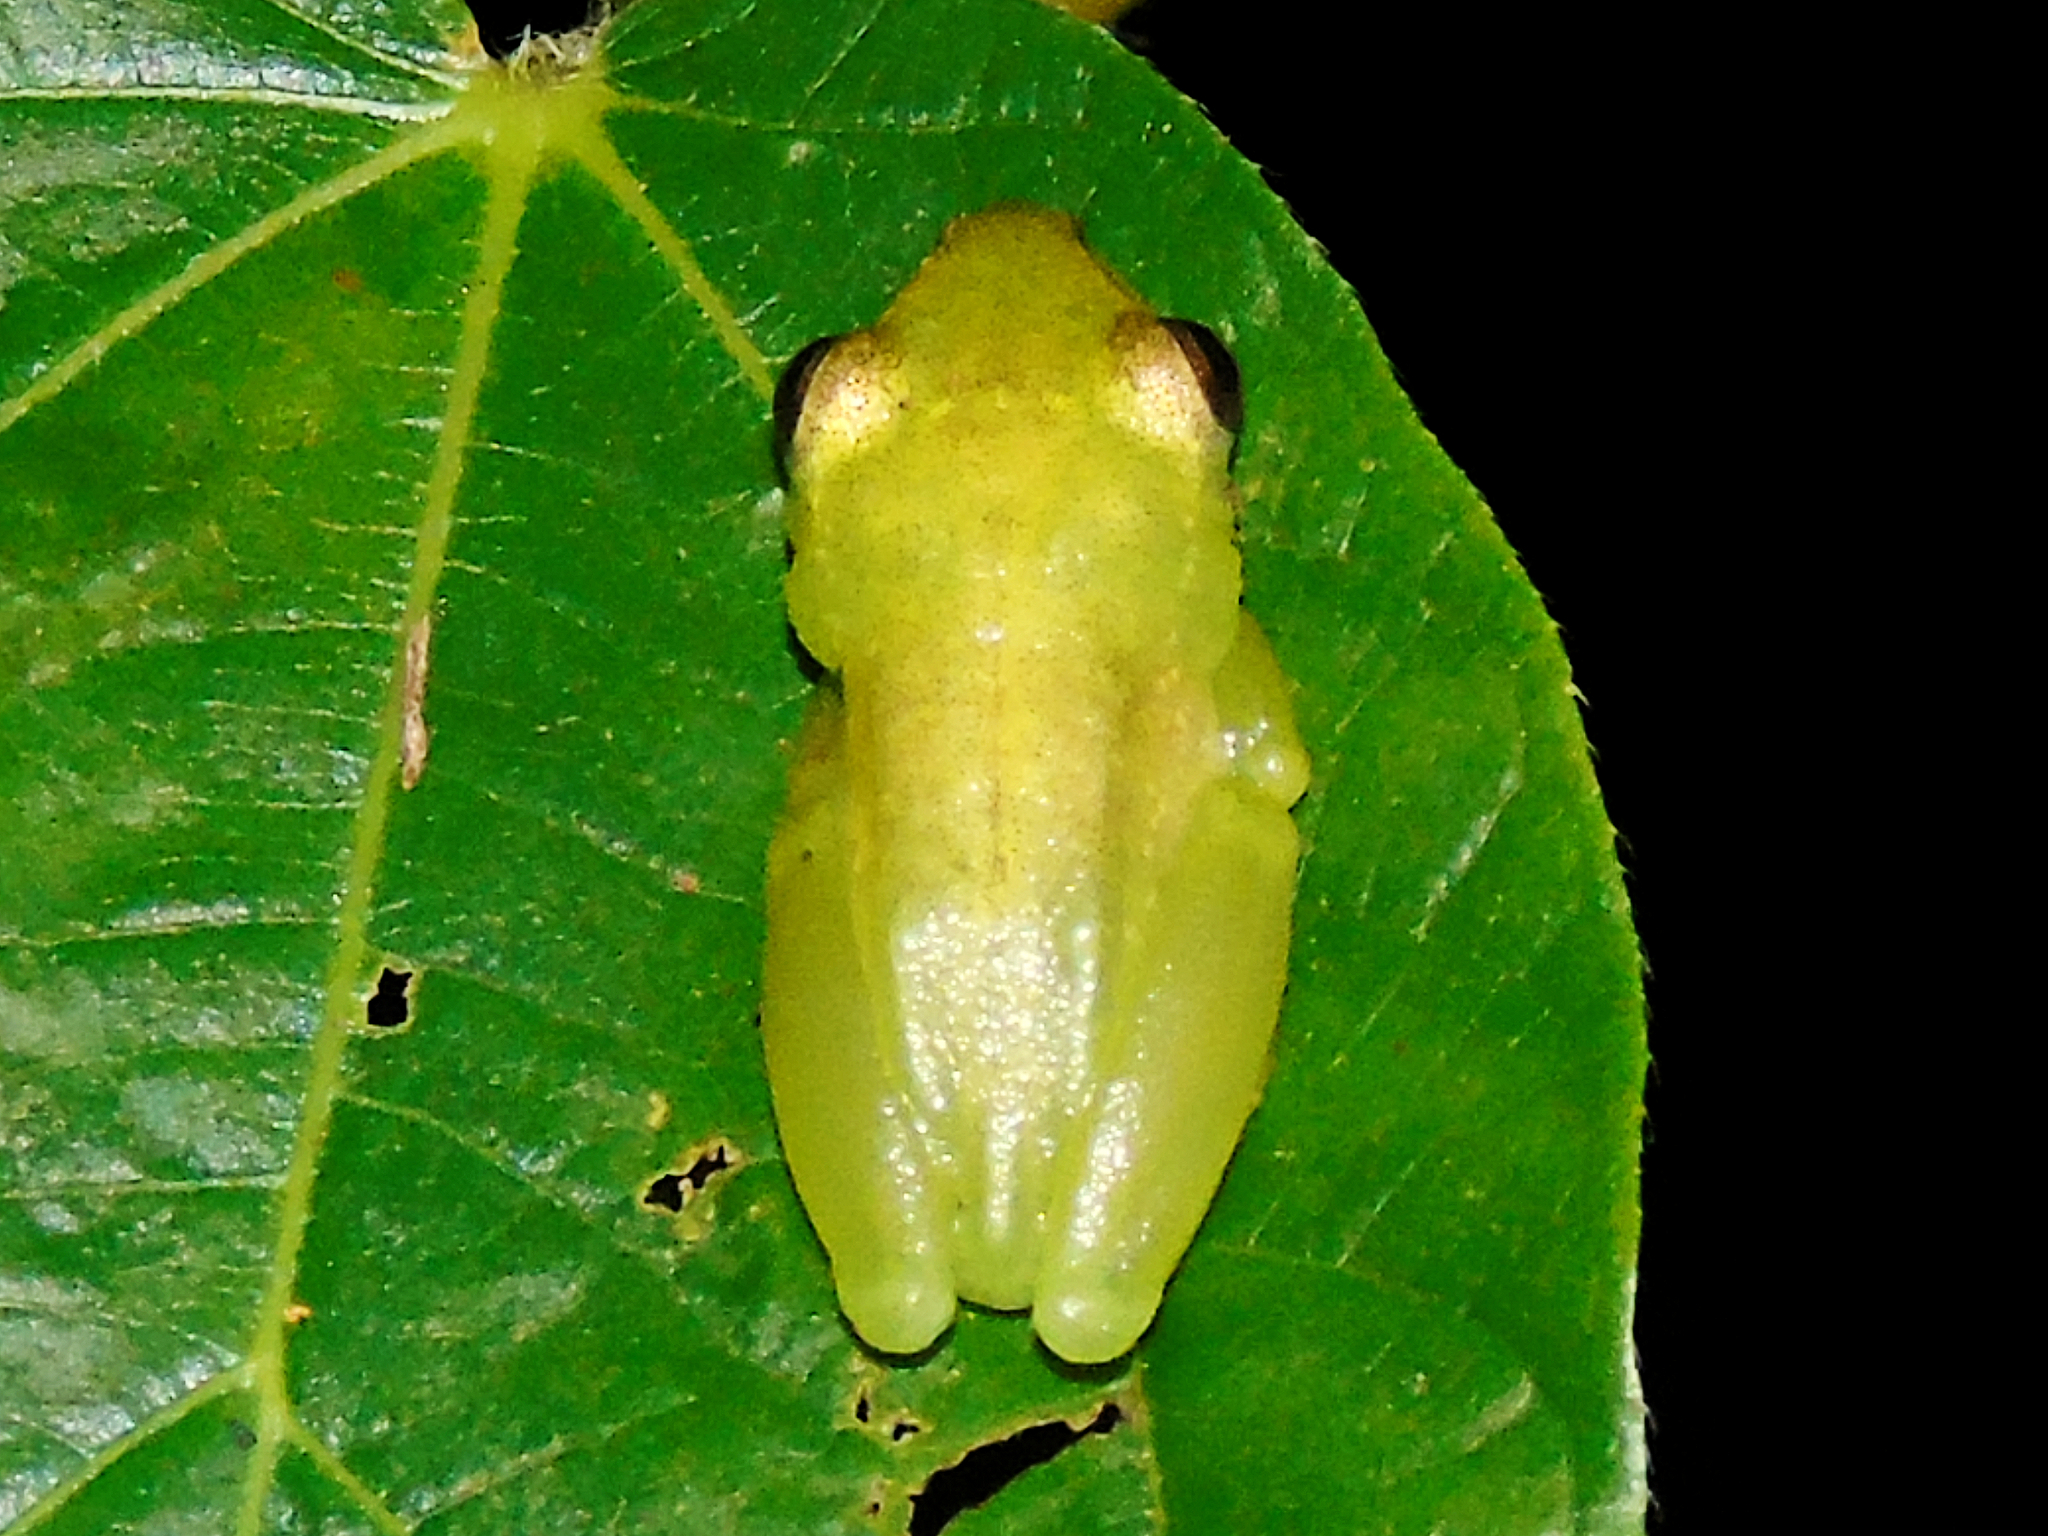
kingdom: Animalia
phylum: Chordata
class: Amphibia
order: Anura
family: Hyperoliidae
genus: Hyperolius
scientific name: Hyperolius parkeri
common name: Brown-or-green sedge frog
